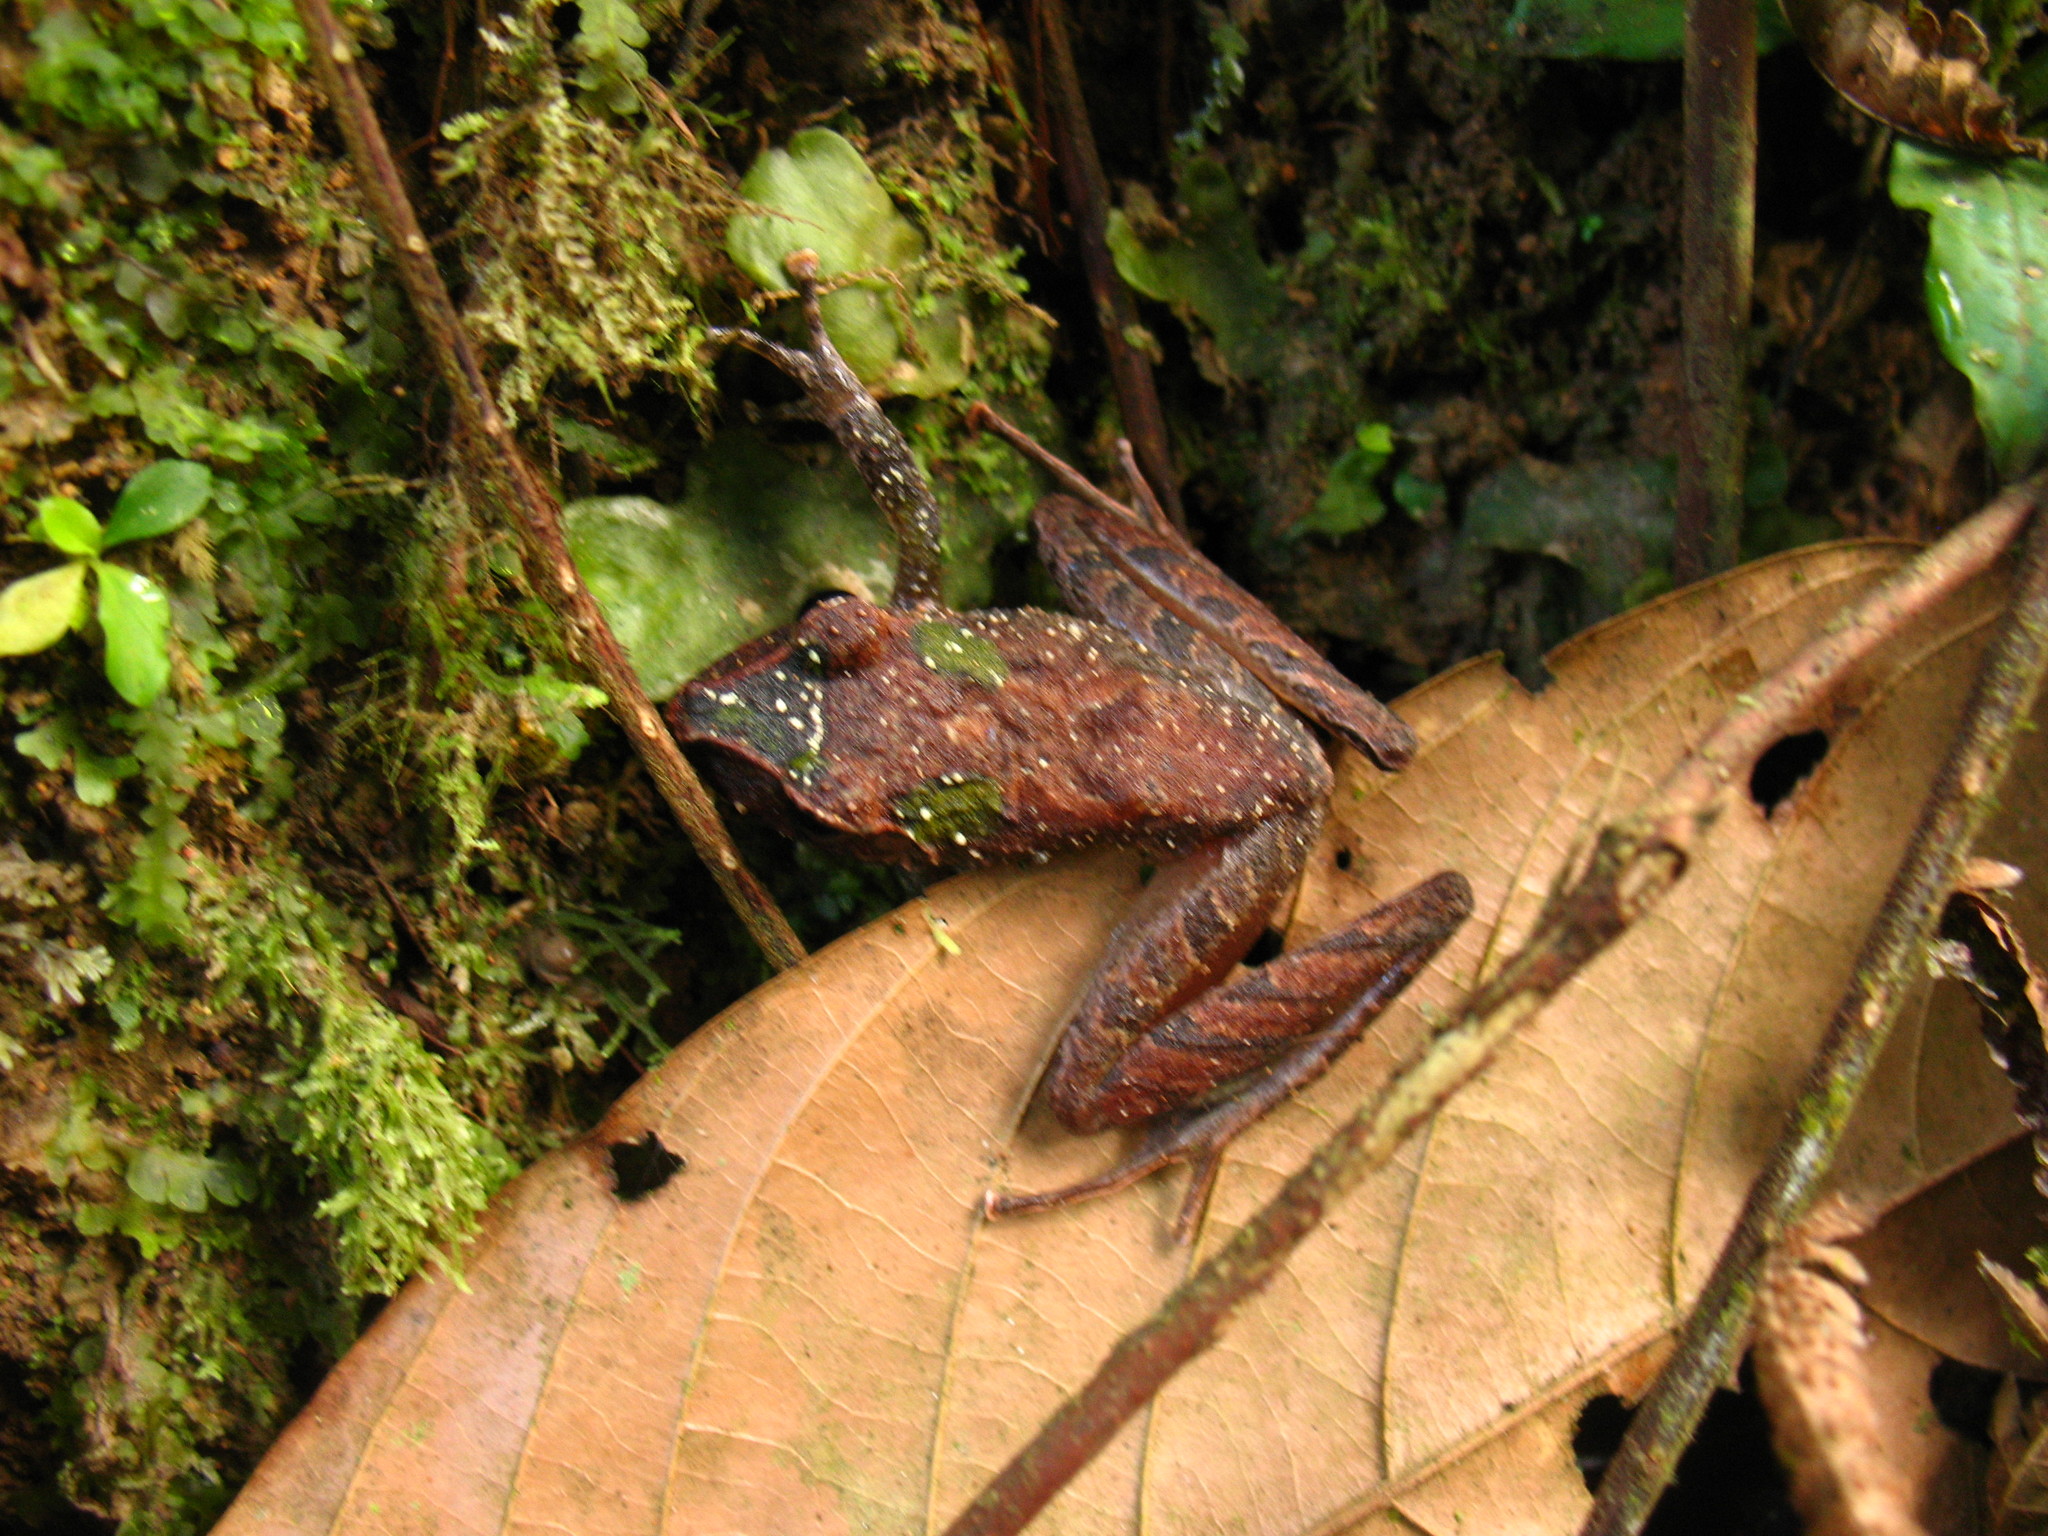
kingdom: Animalia
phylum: Chordata
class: Amphibia
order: Anura
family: Craugastoridae
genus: Craugastor
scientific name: Craugastor crassidigitus
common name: Isla bonita robber frog
